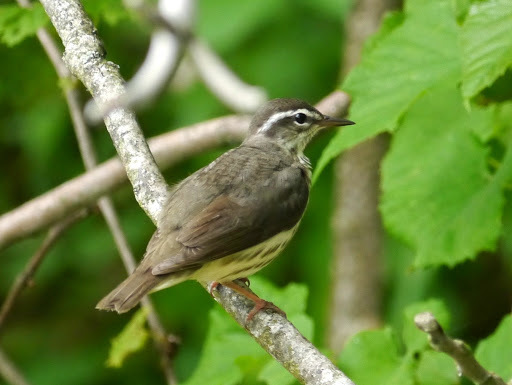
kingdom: Animalia
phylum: Chordata
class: Aves
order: Passeriformes
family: Parulidae
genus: Parkesia
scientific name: Parkesia motacilla
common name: Louisiana waterthrush
